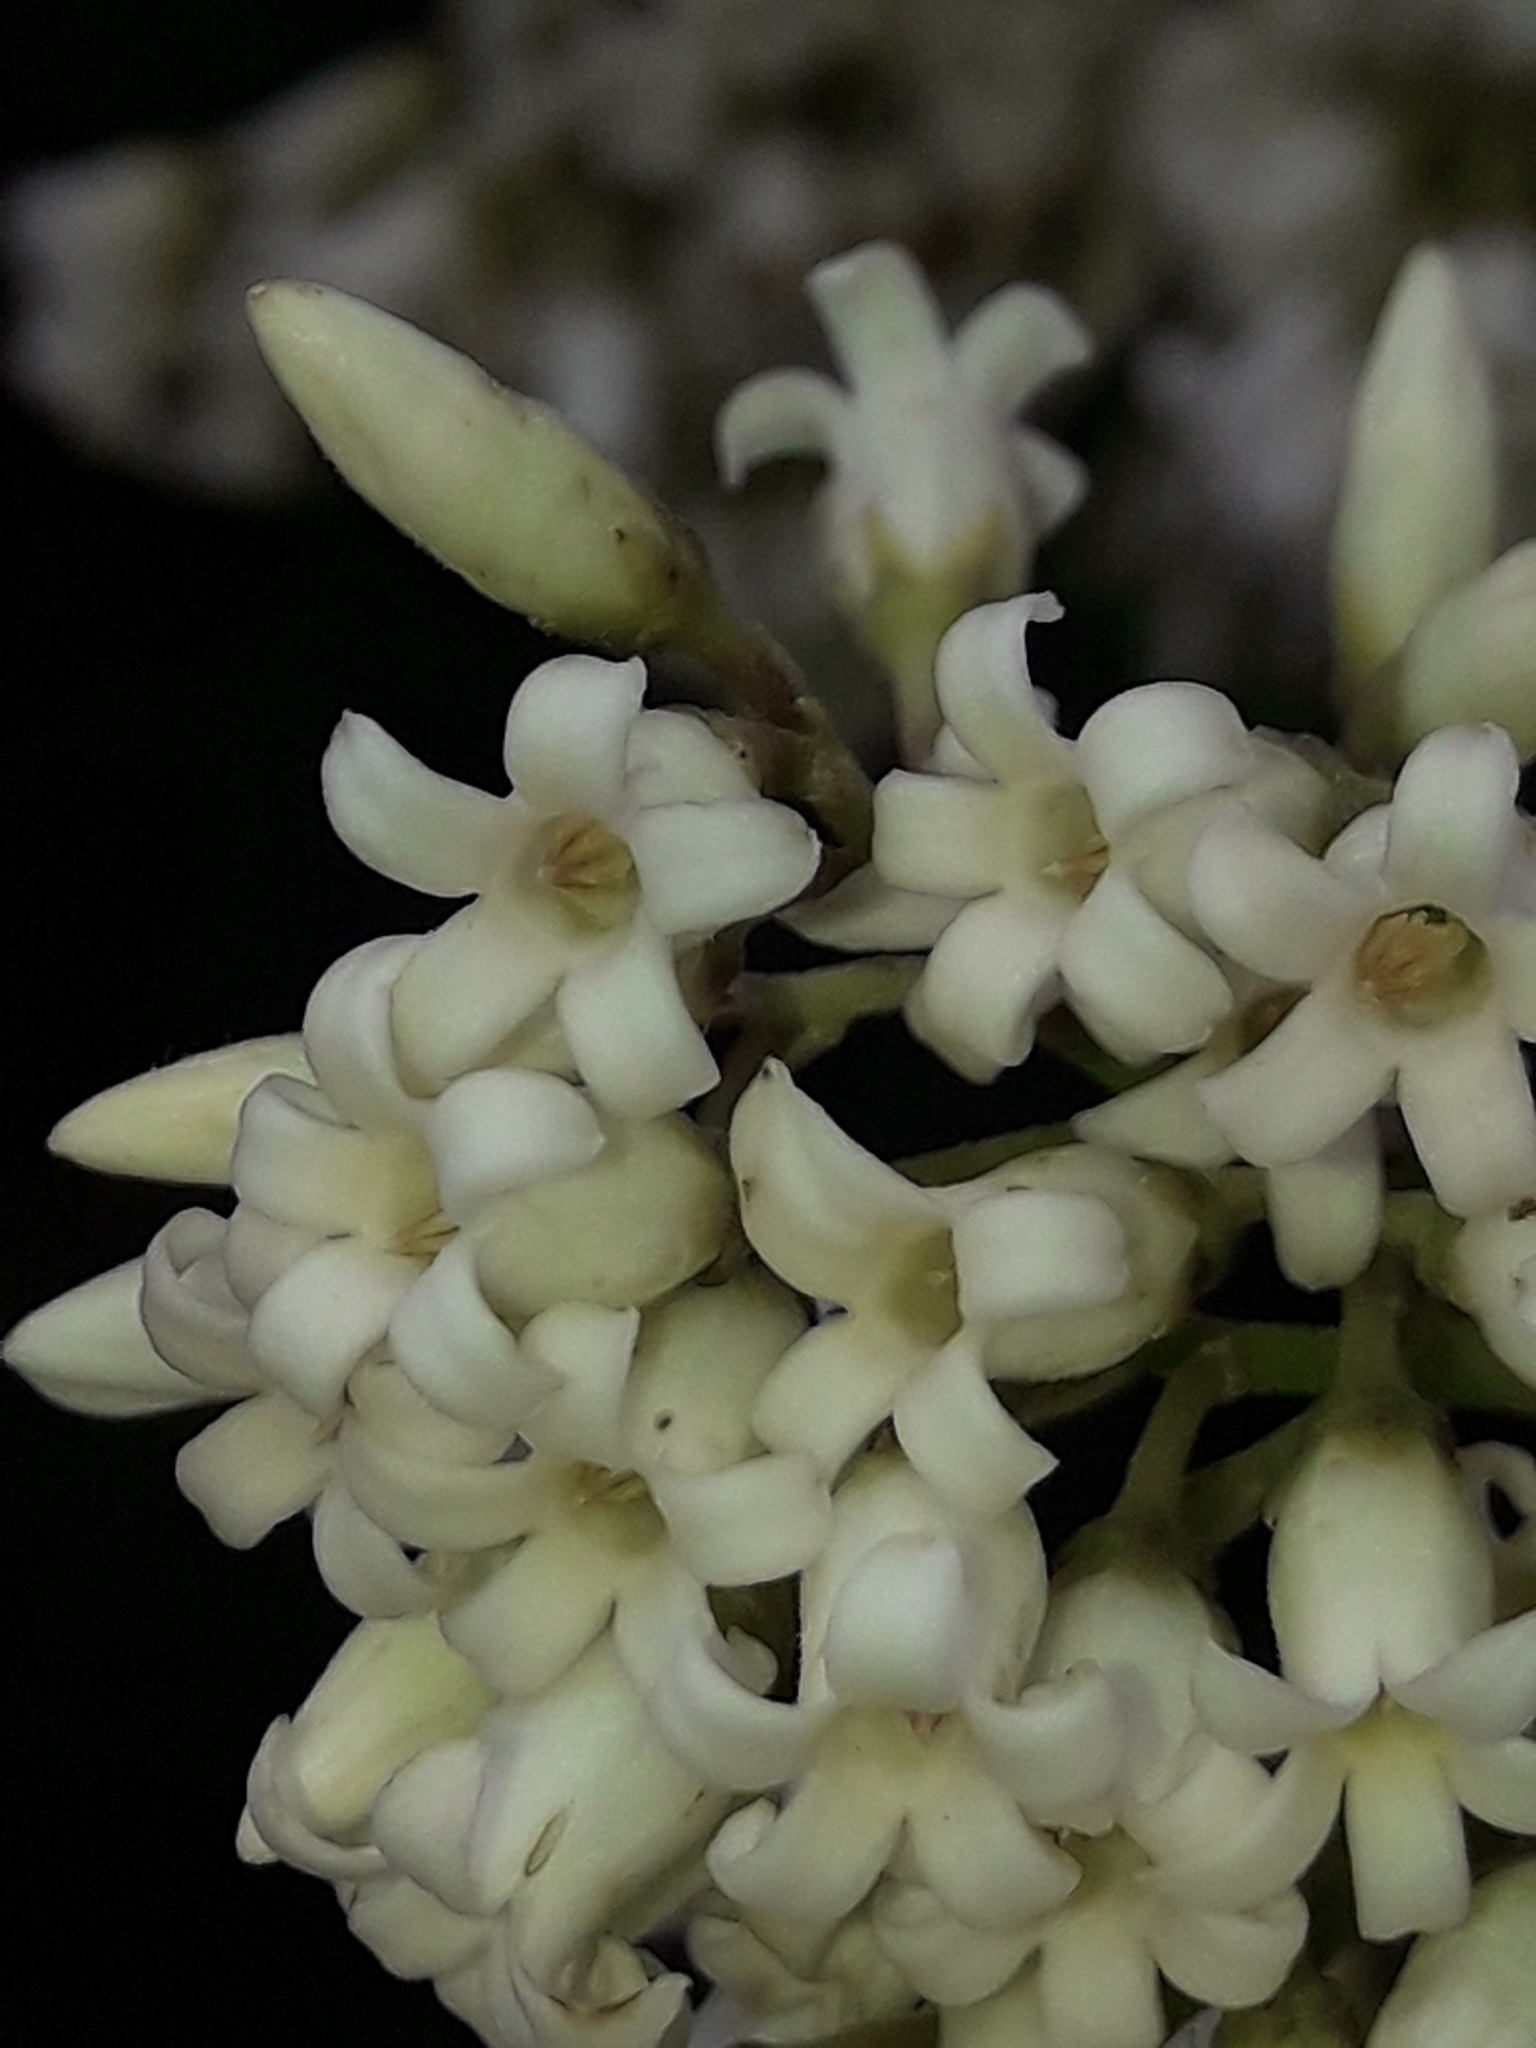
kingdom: Plantae
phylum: Tracheophyta
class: Magnoliopsida
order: Gentianales
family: Apocynaceae
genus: Parsonsia
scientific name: Parsonsia heterophylla
